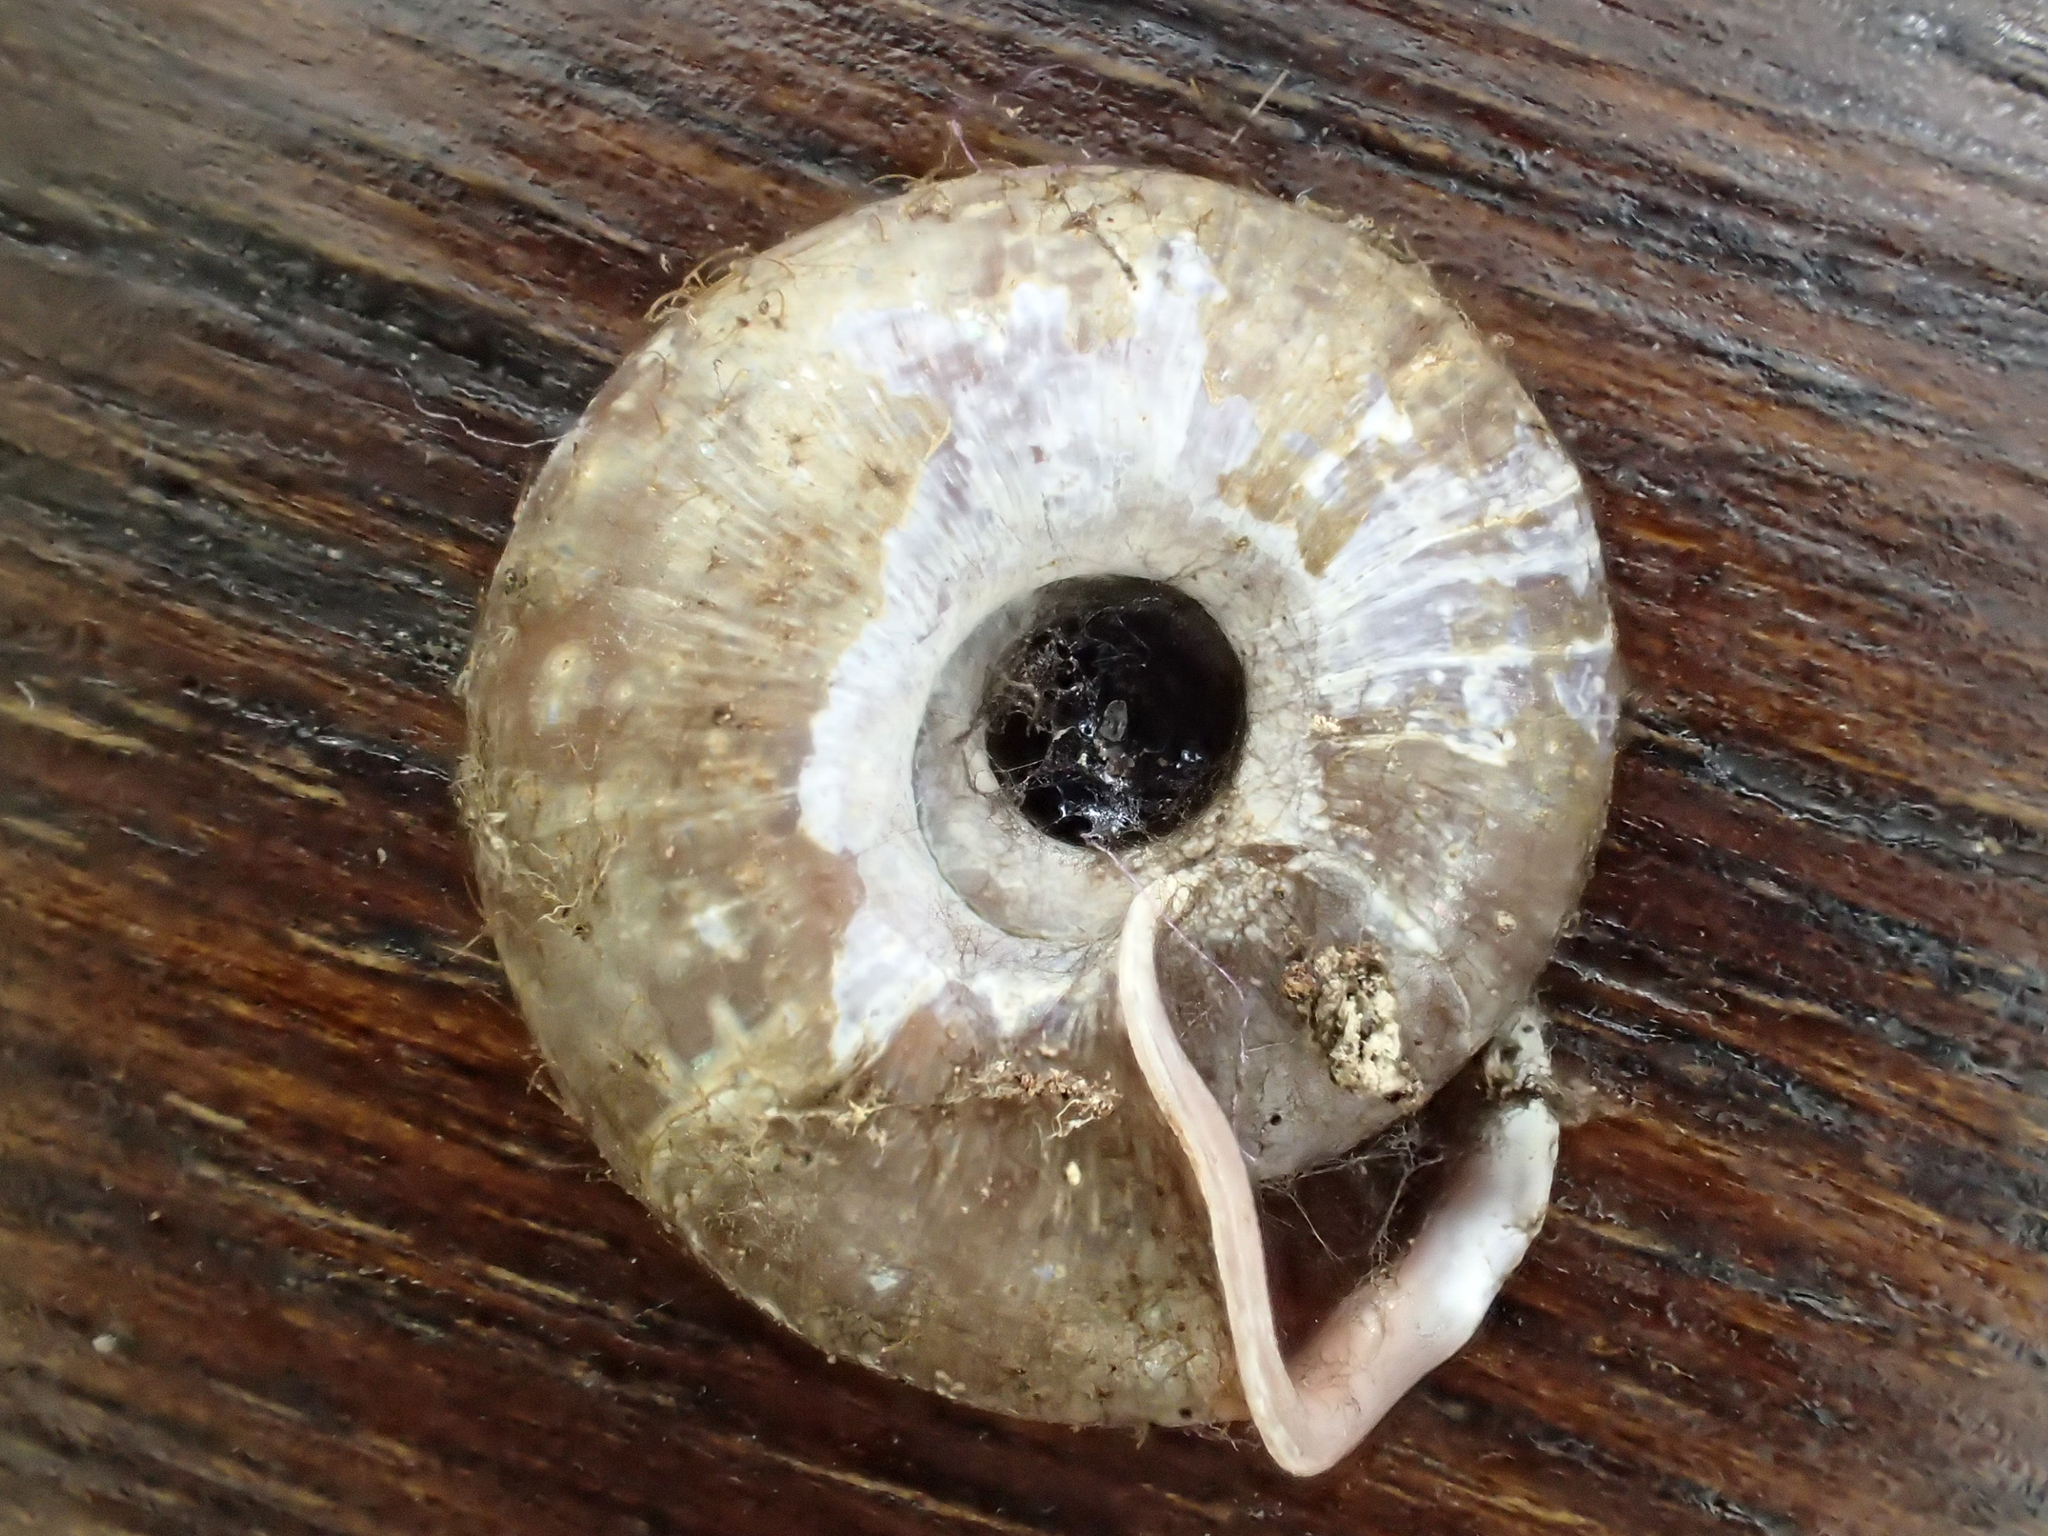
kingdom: Animalia
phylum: Mollusca
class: Gastropoda
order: Stylommatophora
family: Helicodontidae
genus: Helicodonta
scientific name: Helicodonta obvoluta
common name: Cheese snail
